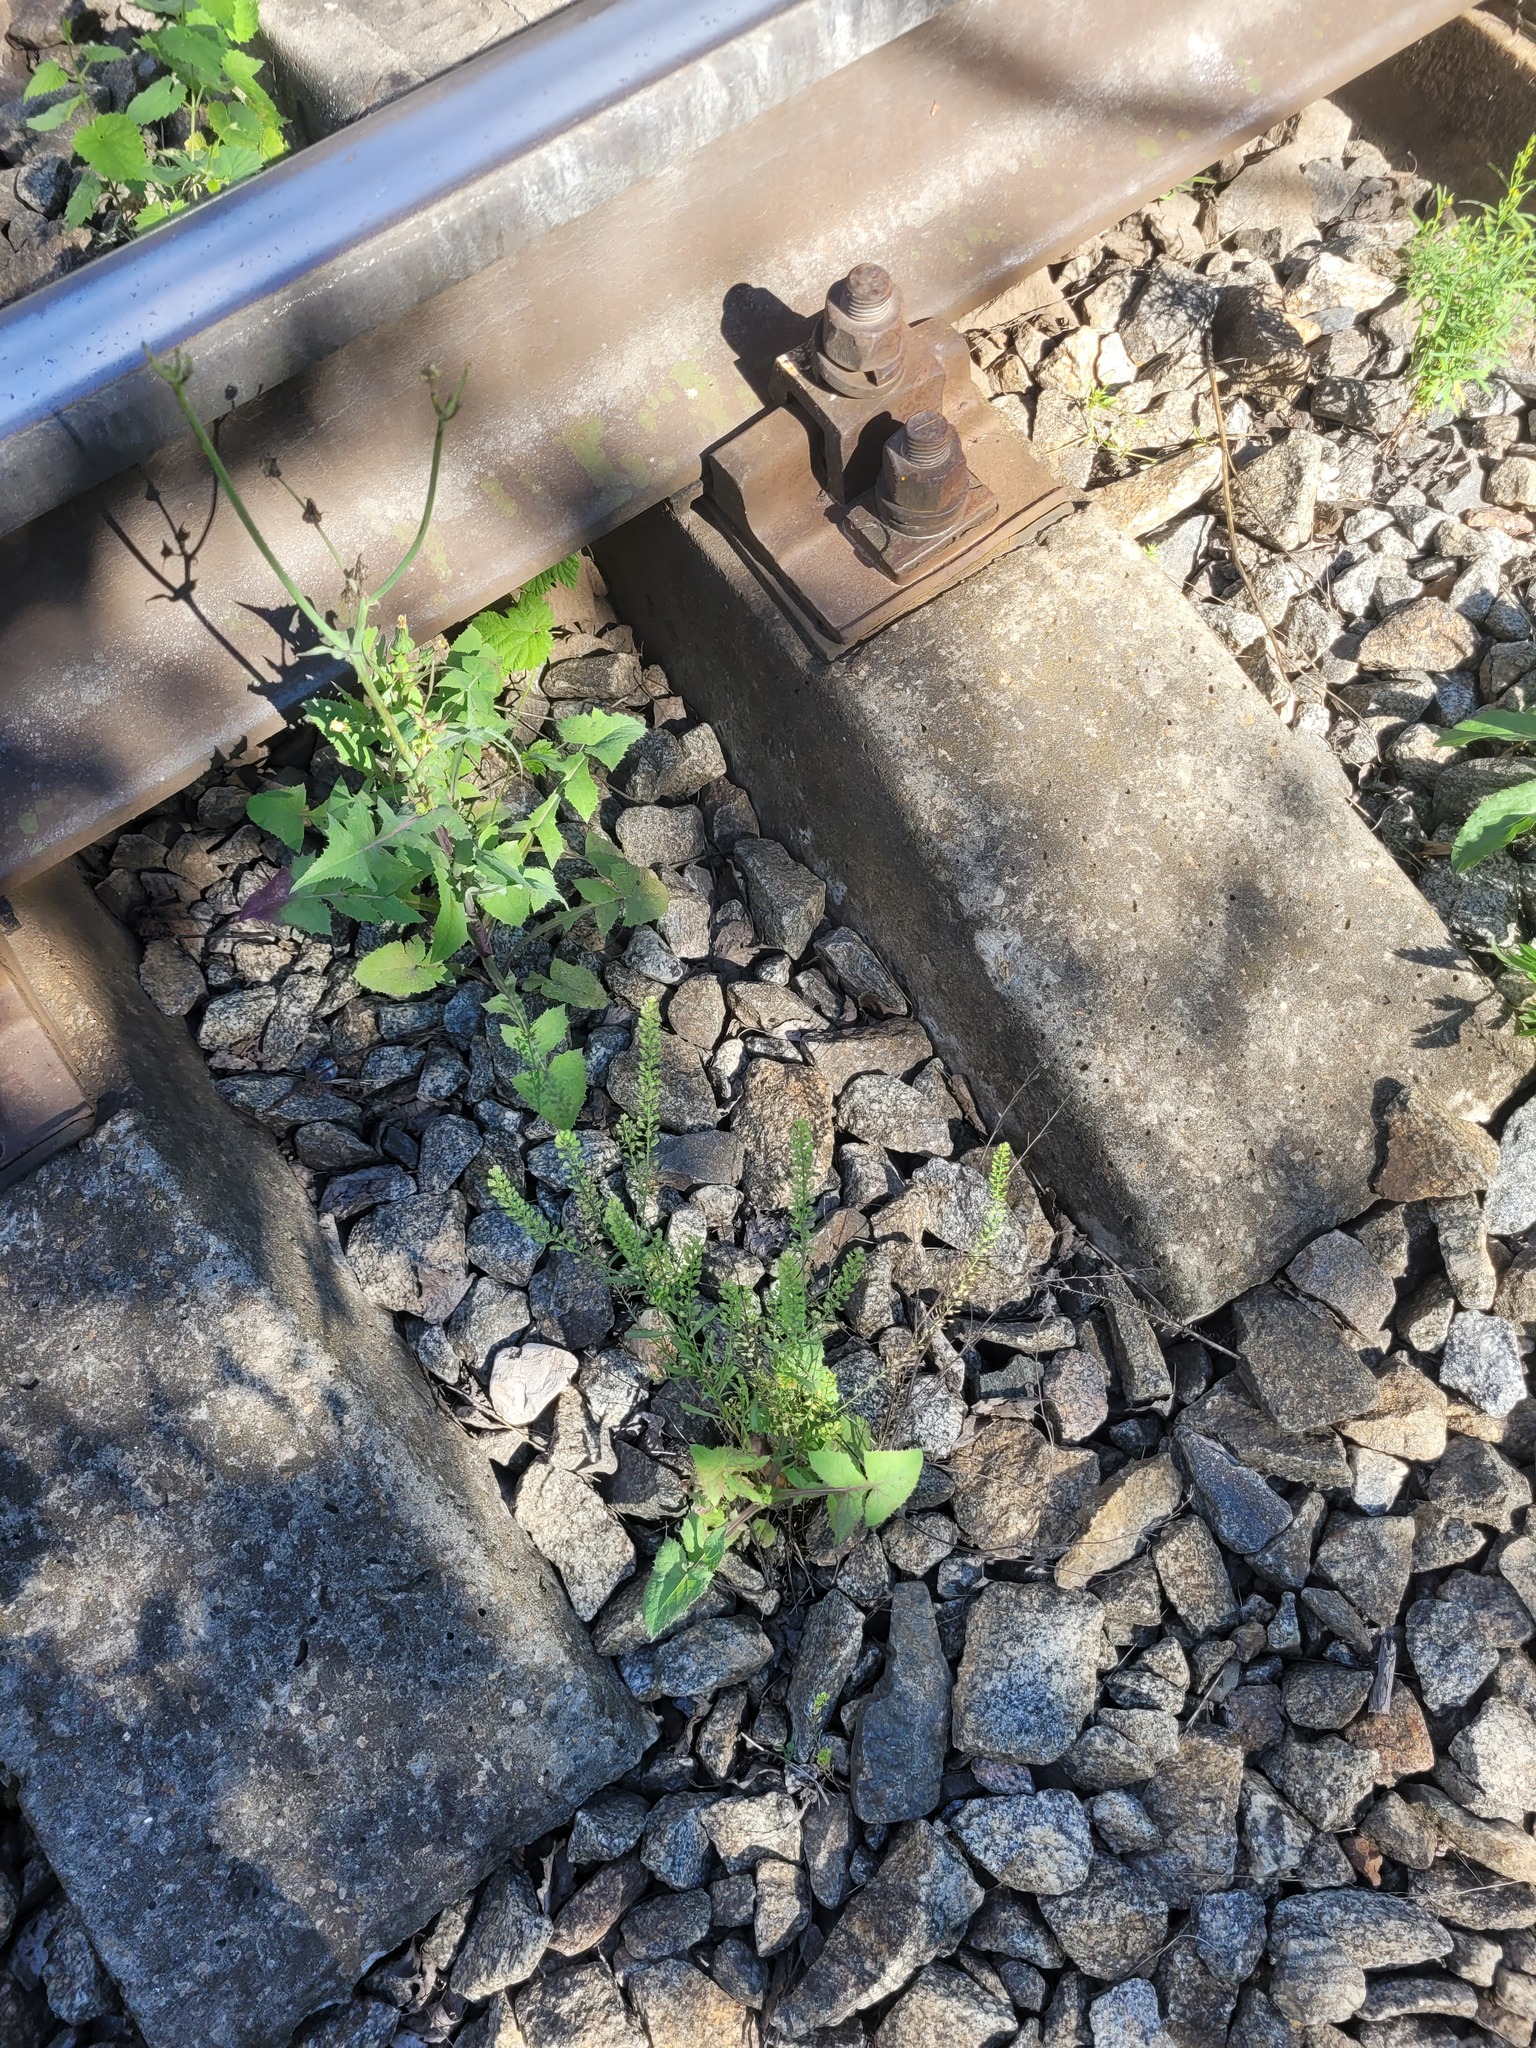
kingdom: Plantae
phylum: Tracheophyta
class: Magnoliopsida
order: Brassicales
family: Brassicaceae
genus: Lepidium
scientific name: Lepidium densiflorum
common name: Miner's pepperwort
